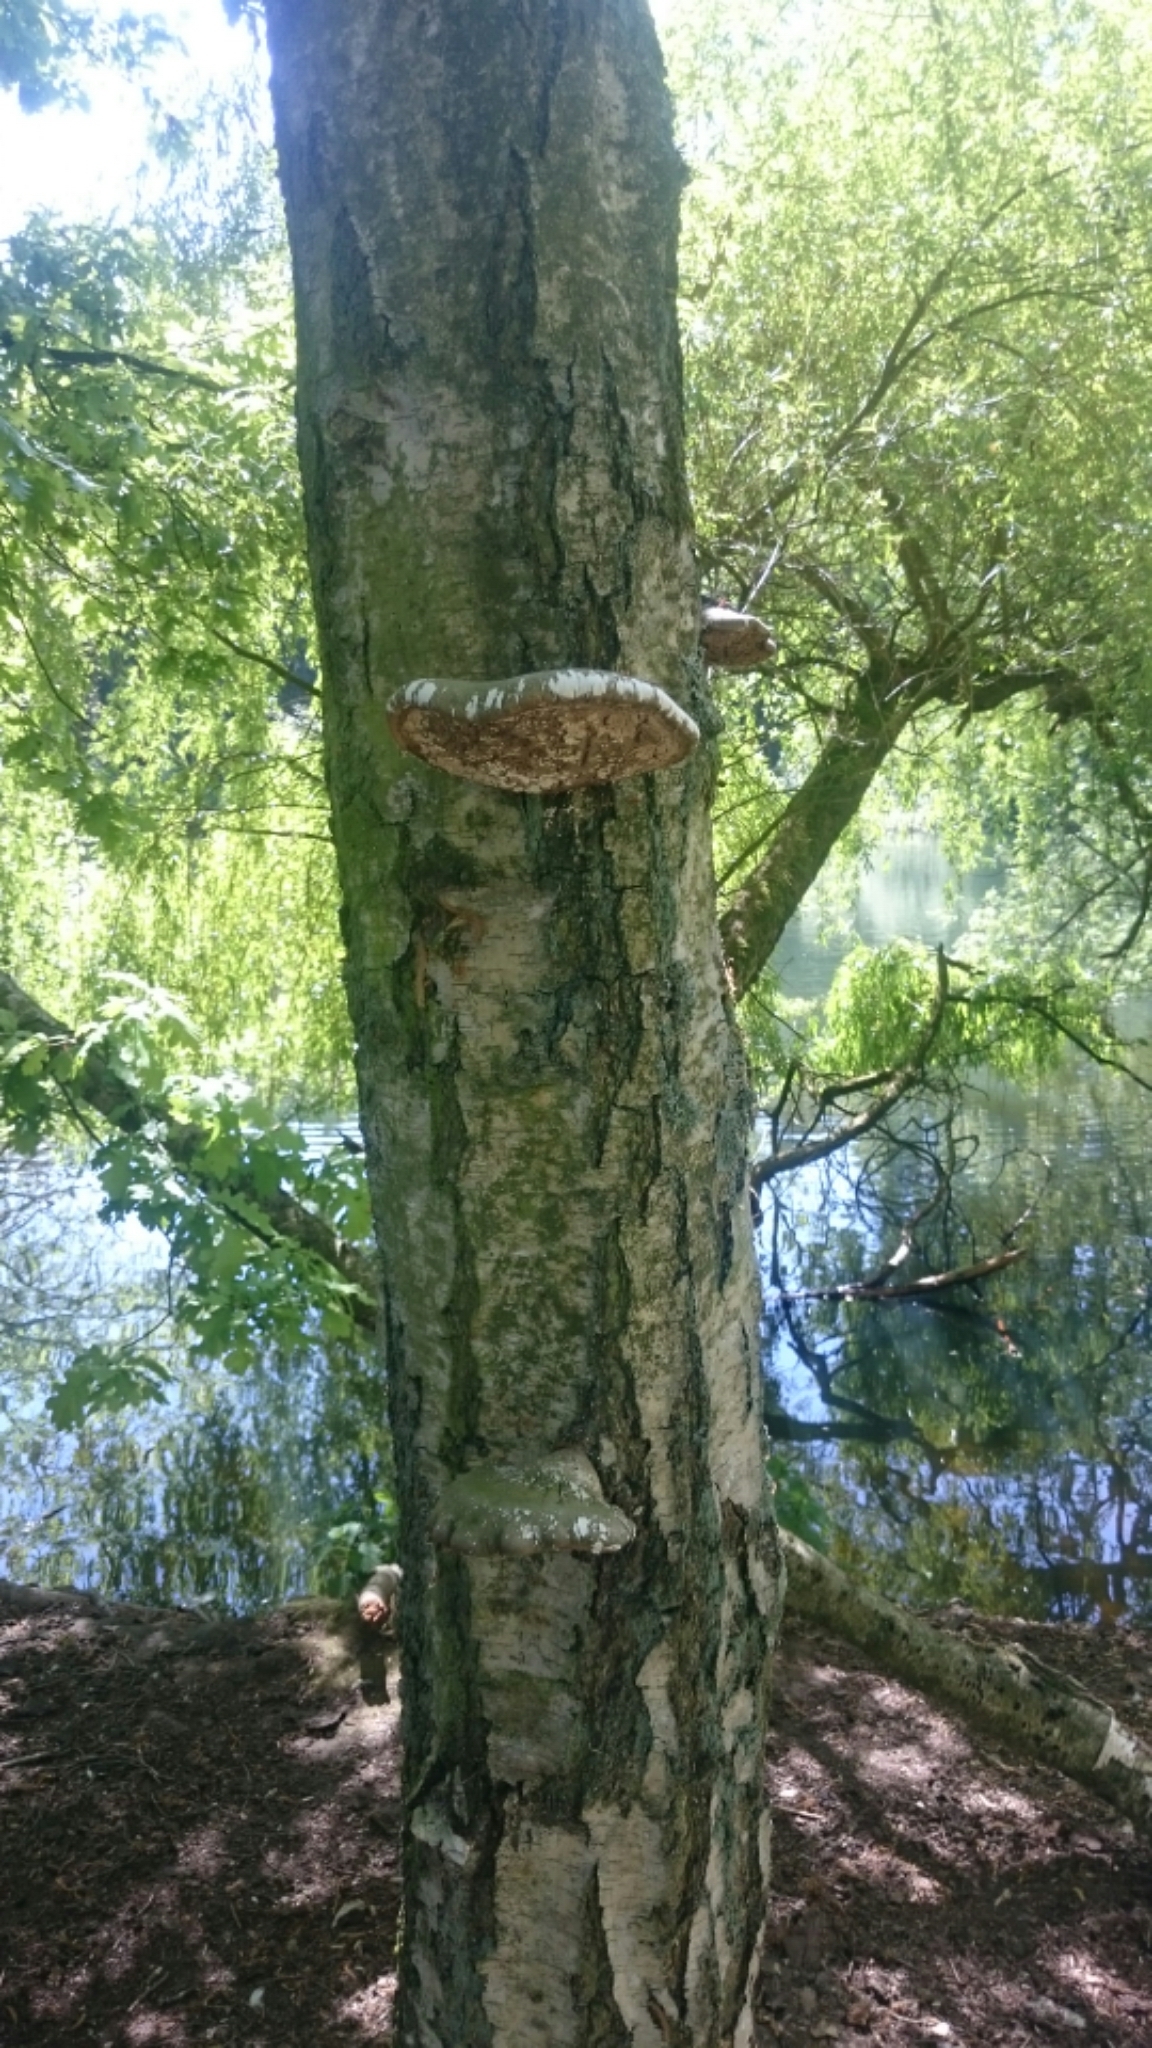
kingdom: Fungi
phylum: Basidiomycota
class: Agaricomycetes
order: Polyporales
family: Fomitopsidaceae
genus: Fomitopsis
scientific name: Fomitopsis betulina
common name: Birch polypore
